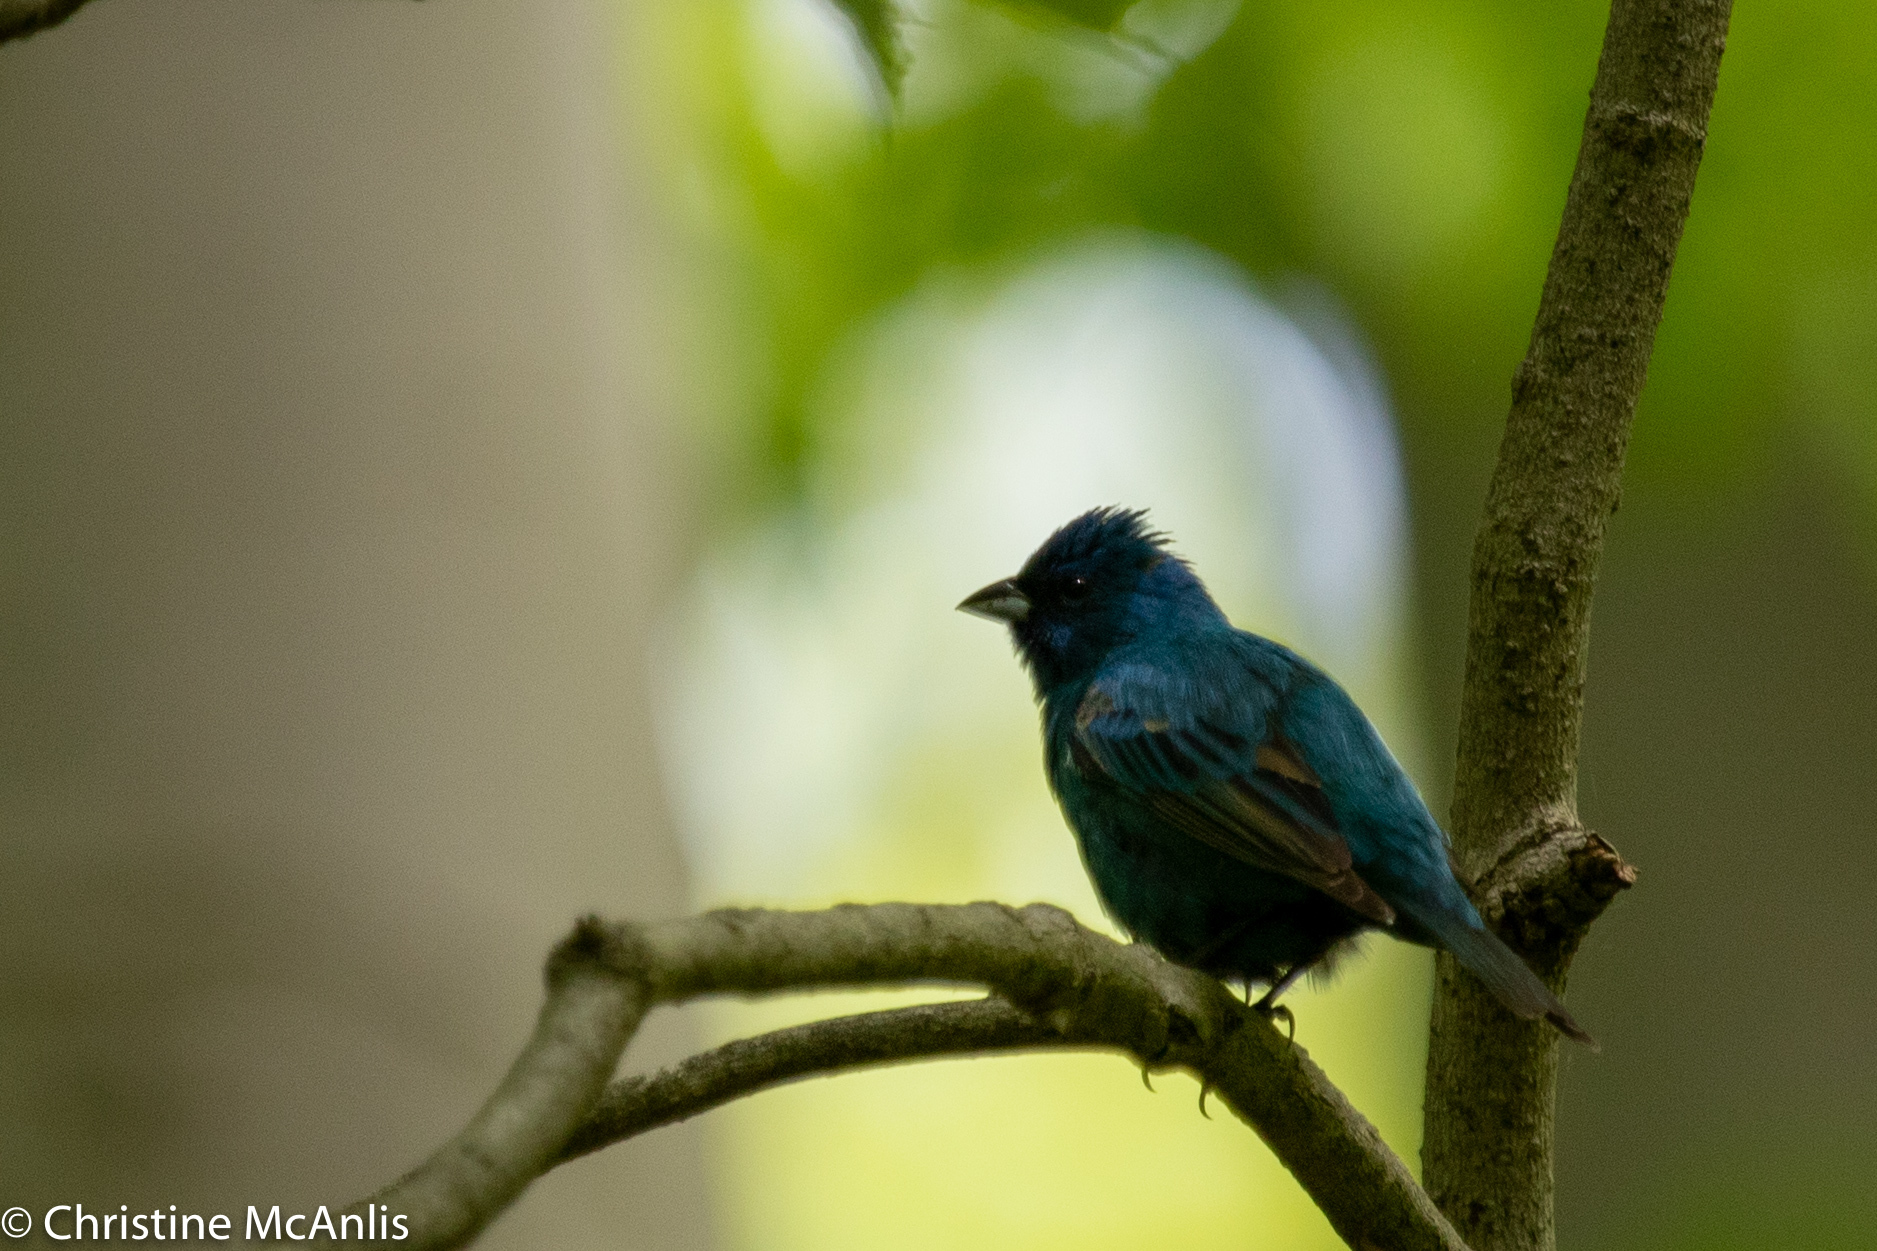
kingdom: Animalia
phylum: Chordata
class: Aves
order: Passeriformes
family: Cardinalidae
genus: Passerina
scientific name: Passerina cyanea
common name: Indigo bunting
